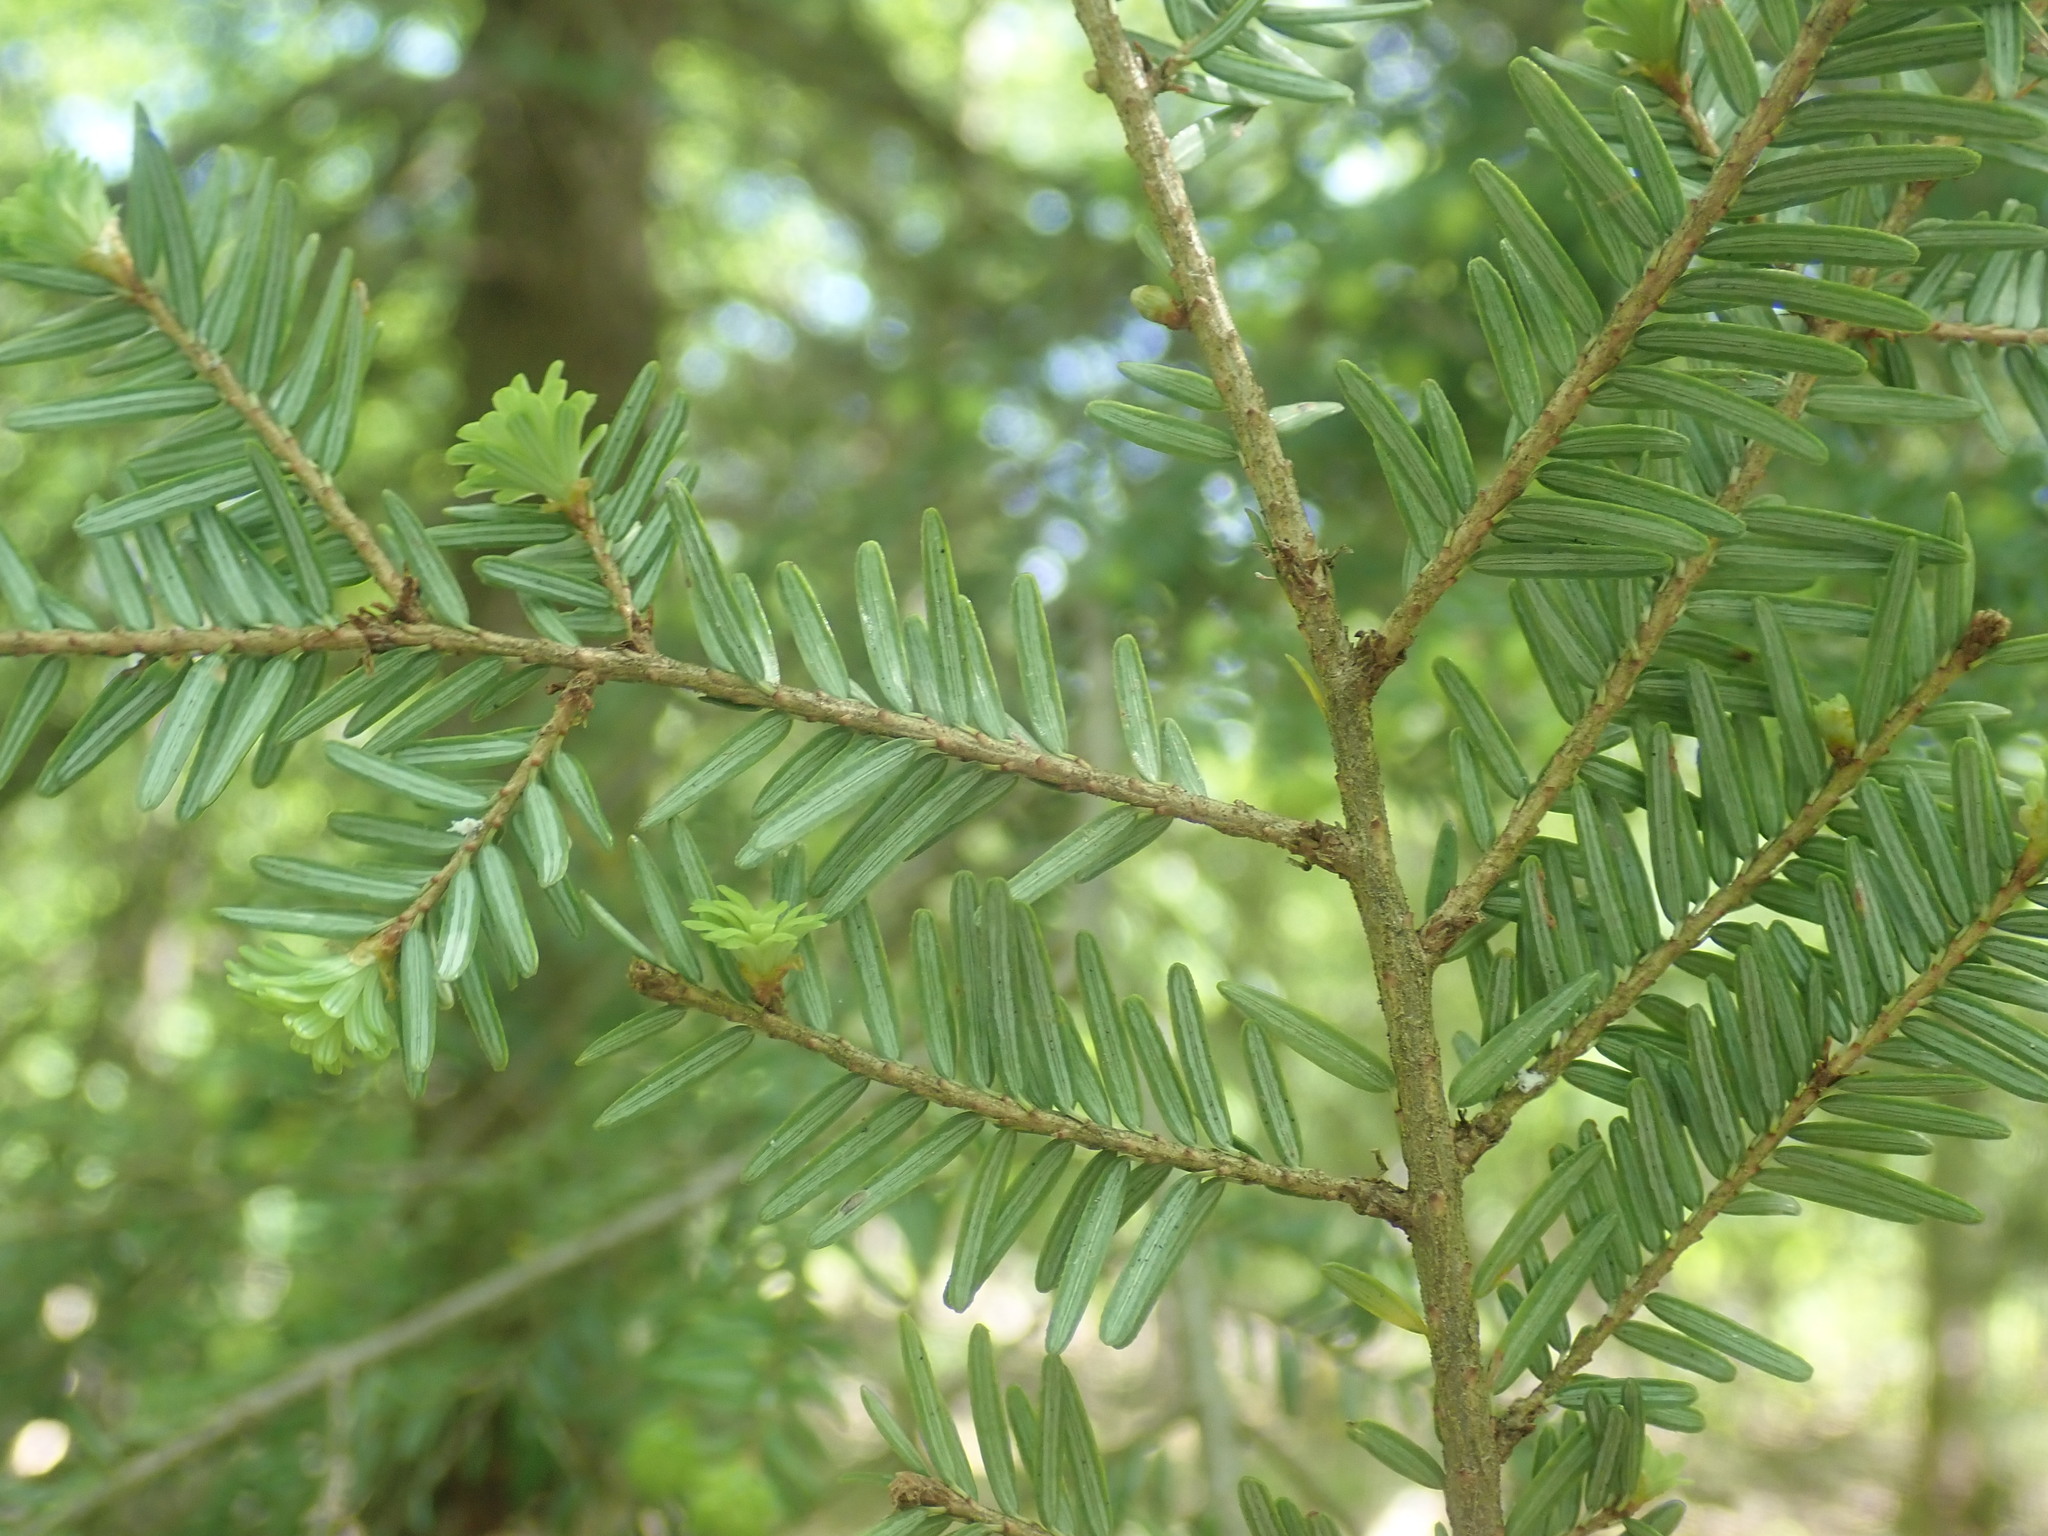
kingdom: Plantae
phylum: Tracheophyta
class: Pinopsida
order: Pinales
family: Pinaceae
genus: Tsuga
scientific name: Tsuga canadensis
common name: Eastern hemlock
